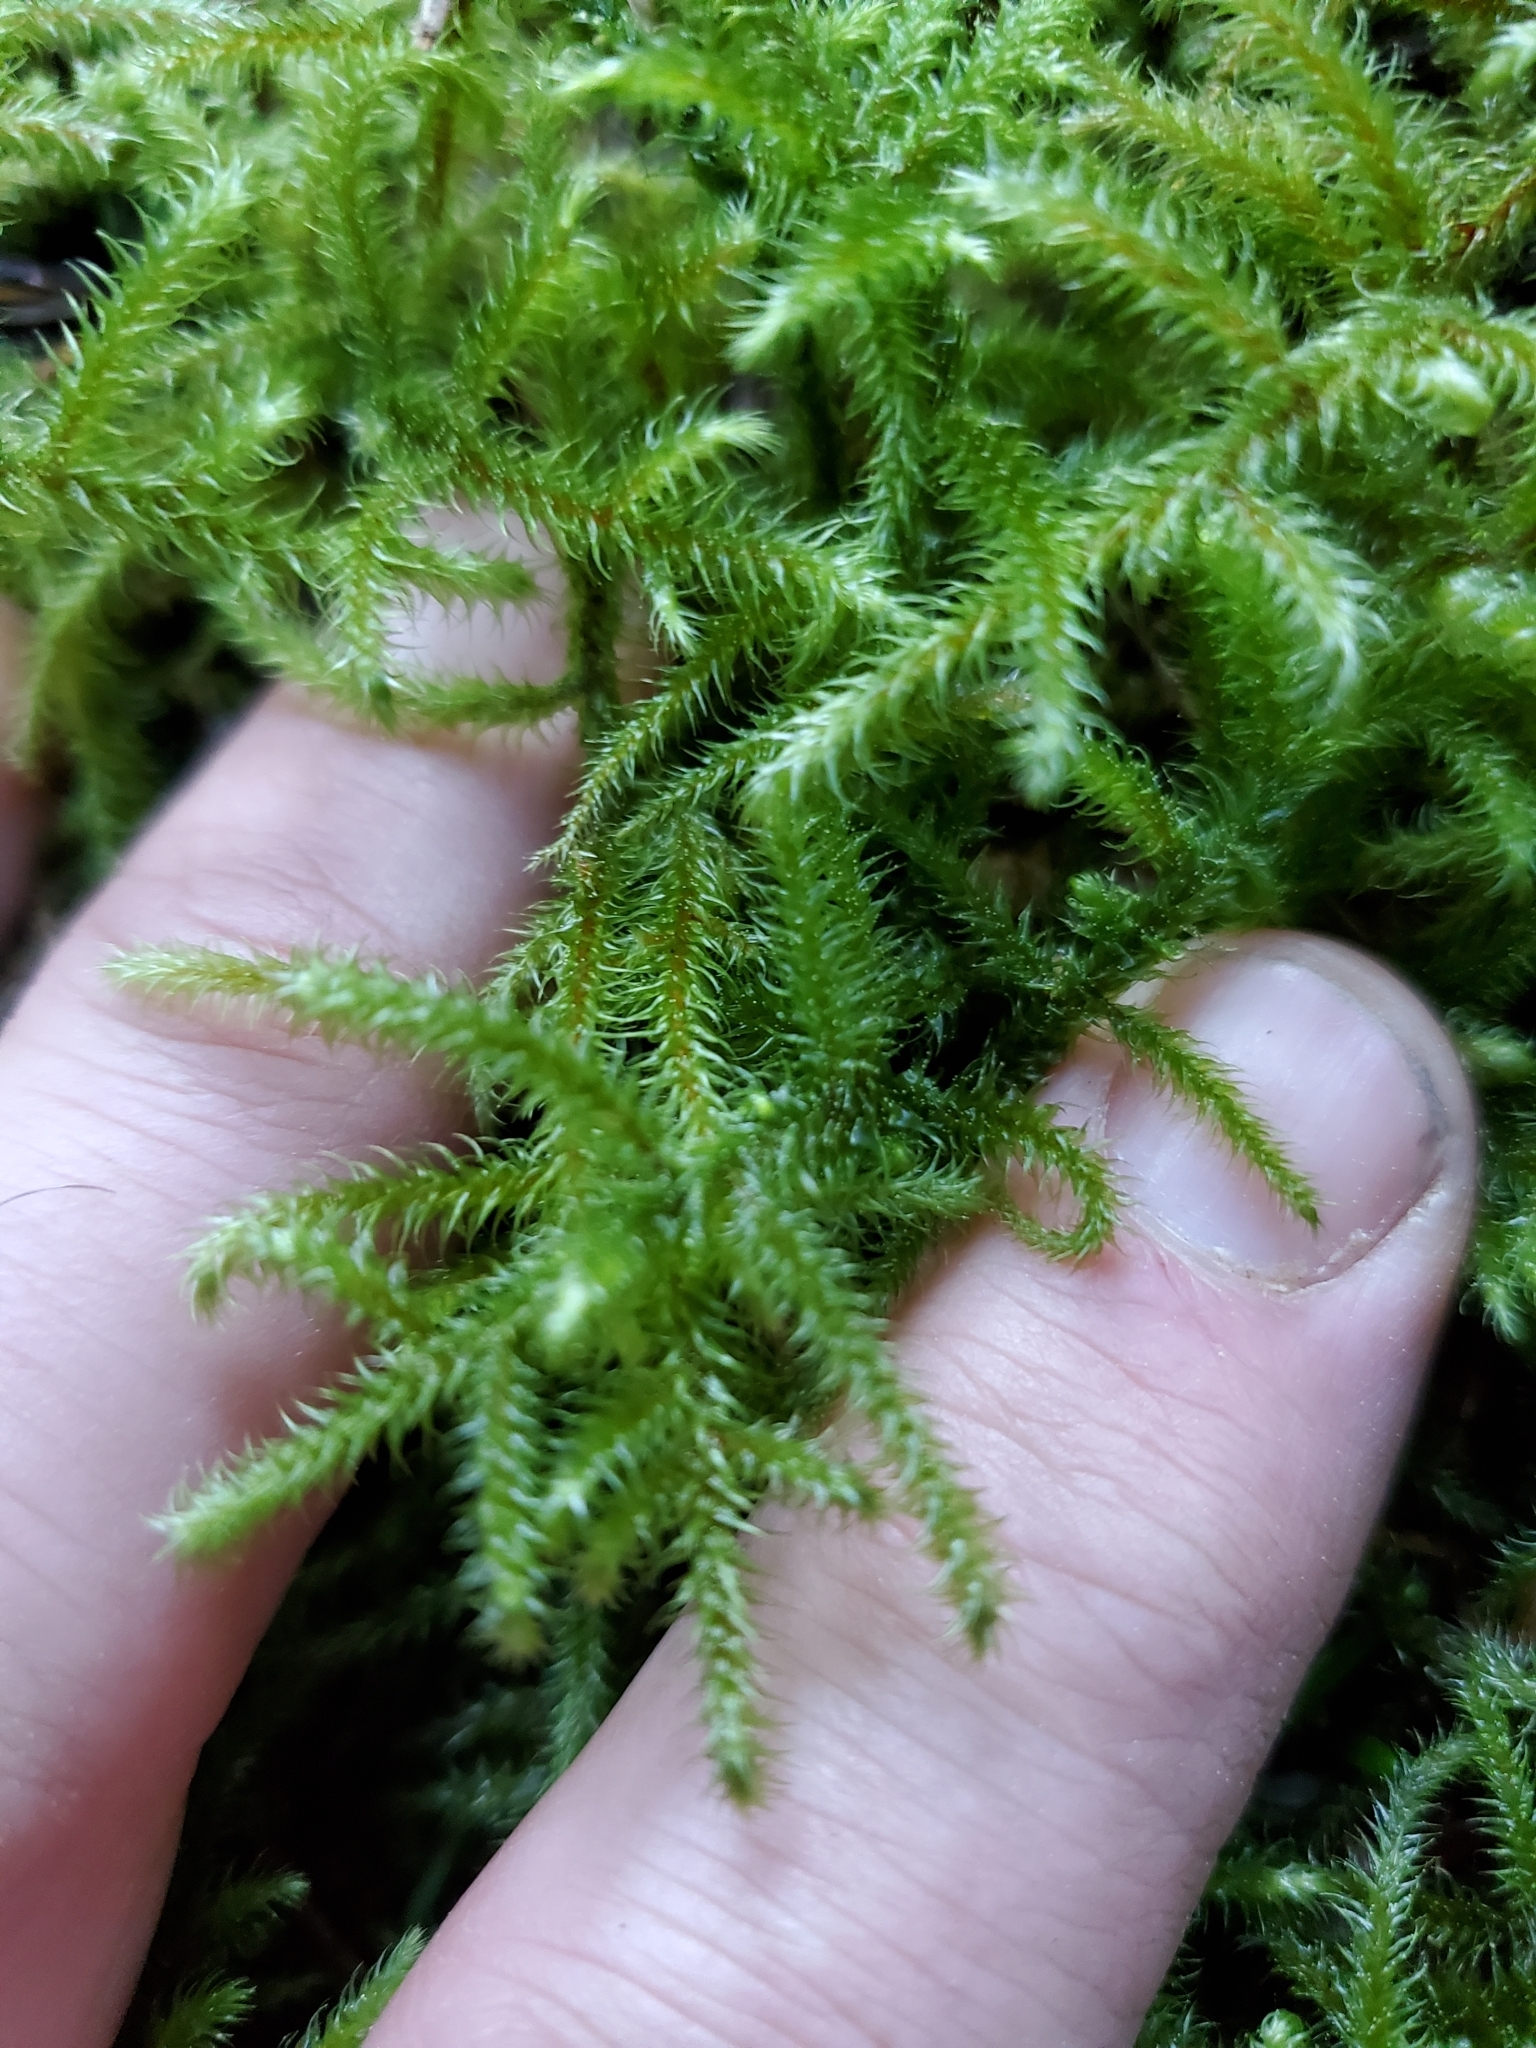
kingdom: Plantae
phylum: Bryophyta
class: Bryopsida
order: Hypnales
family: Hylocomiaceae
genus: Rhytidiadelphus
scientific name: Rhytidiadelphus loreus
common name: Lanky moss
